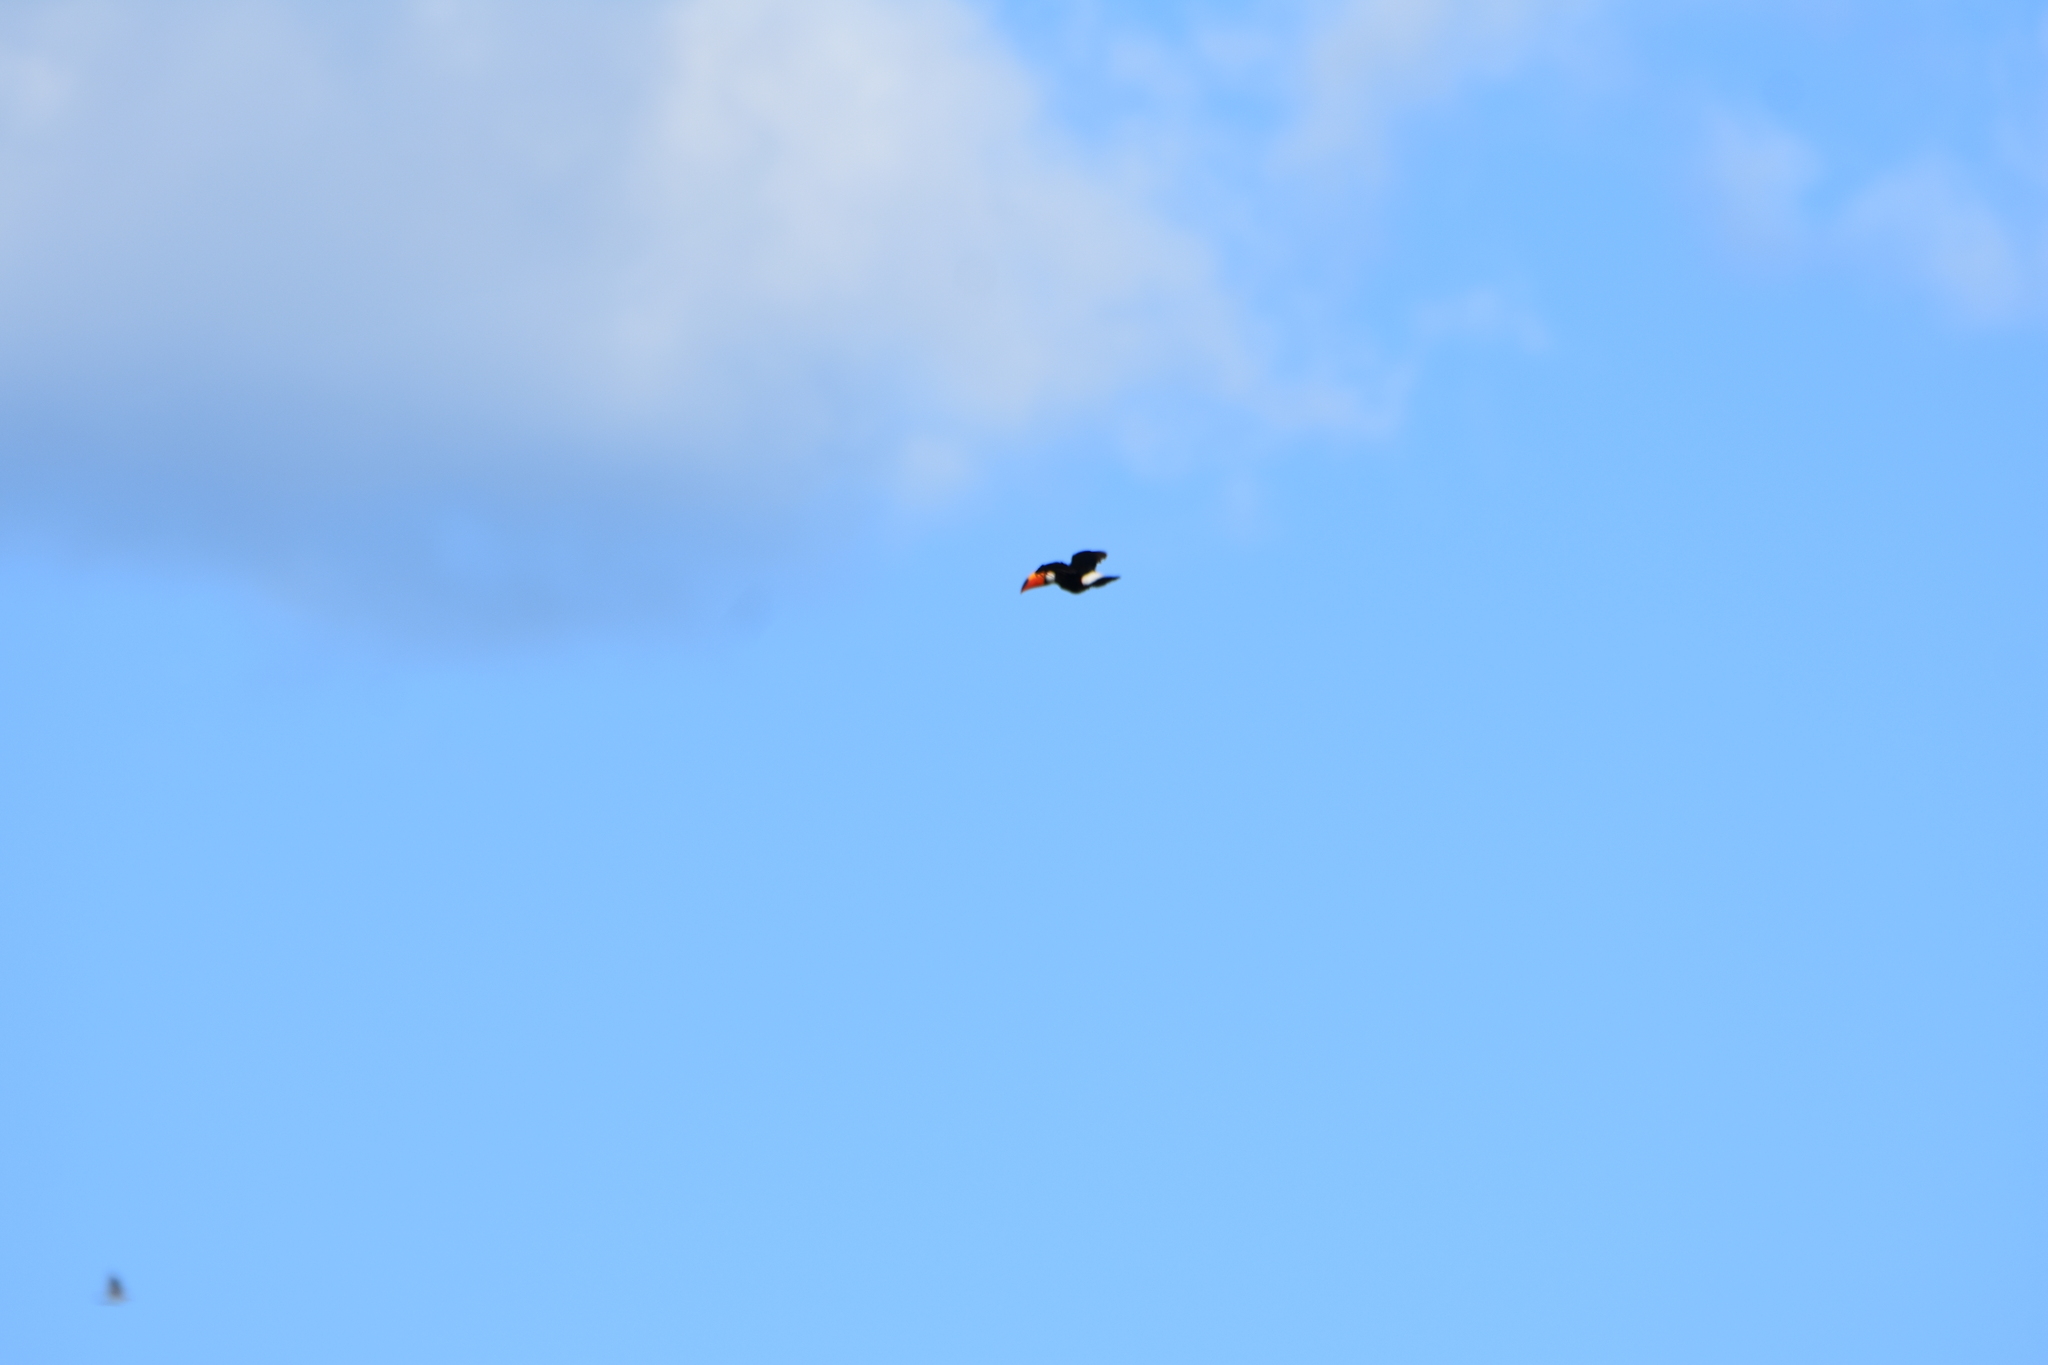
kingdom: Animalia
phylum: Chordata
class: Aves
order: Piciformes
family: Ramphastidae
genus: Ramphastos
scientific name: Ramphastos toco
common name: Toco toucan
